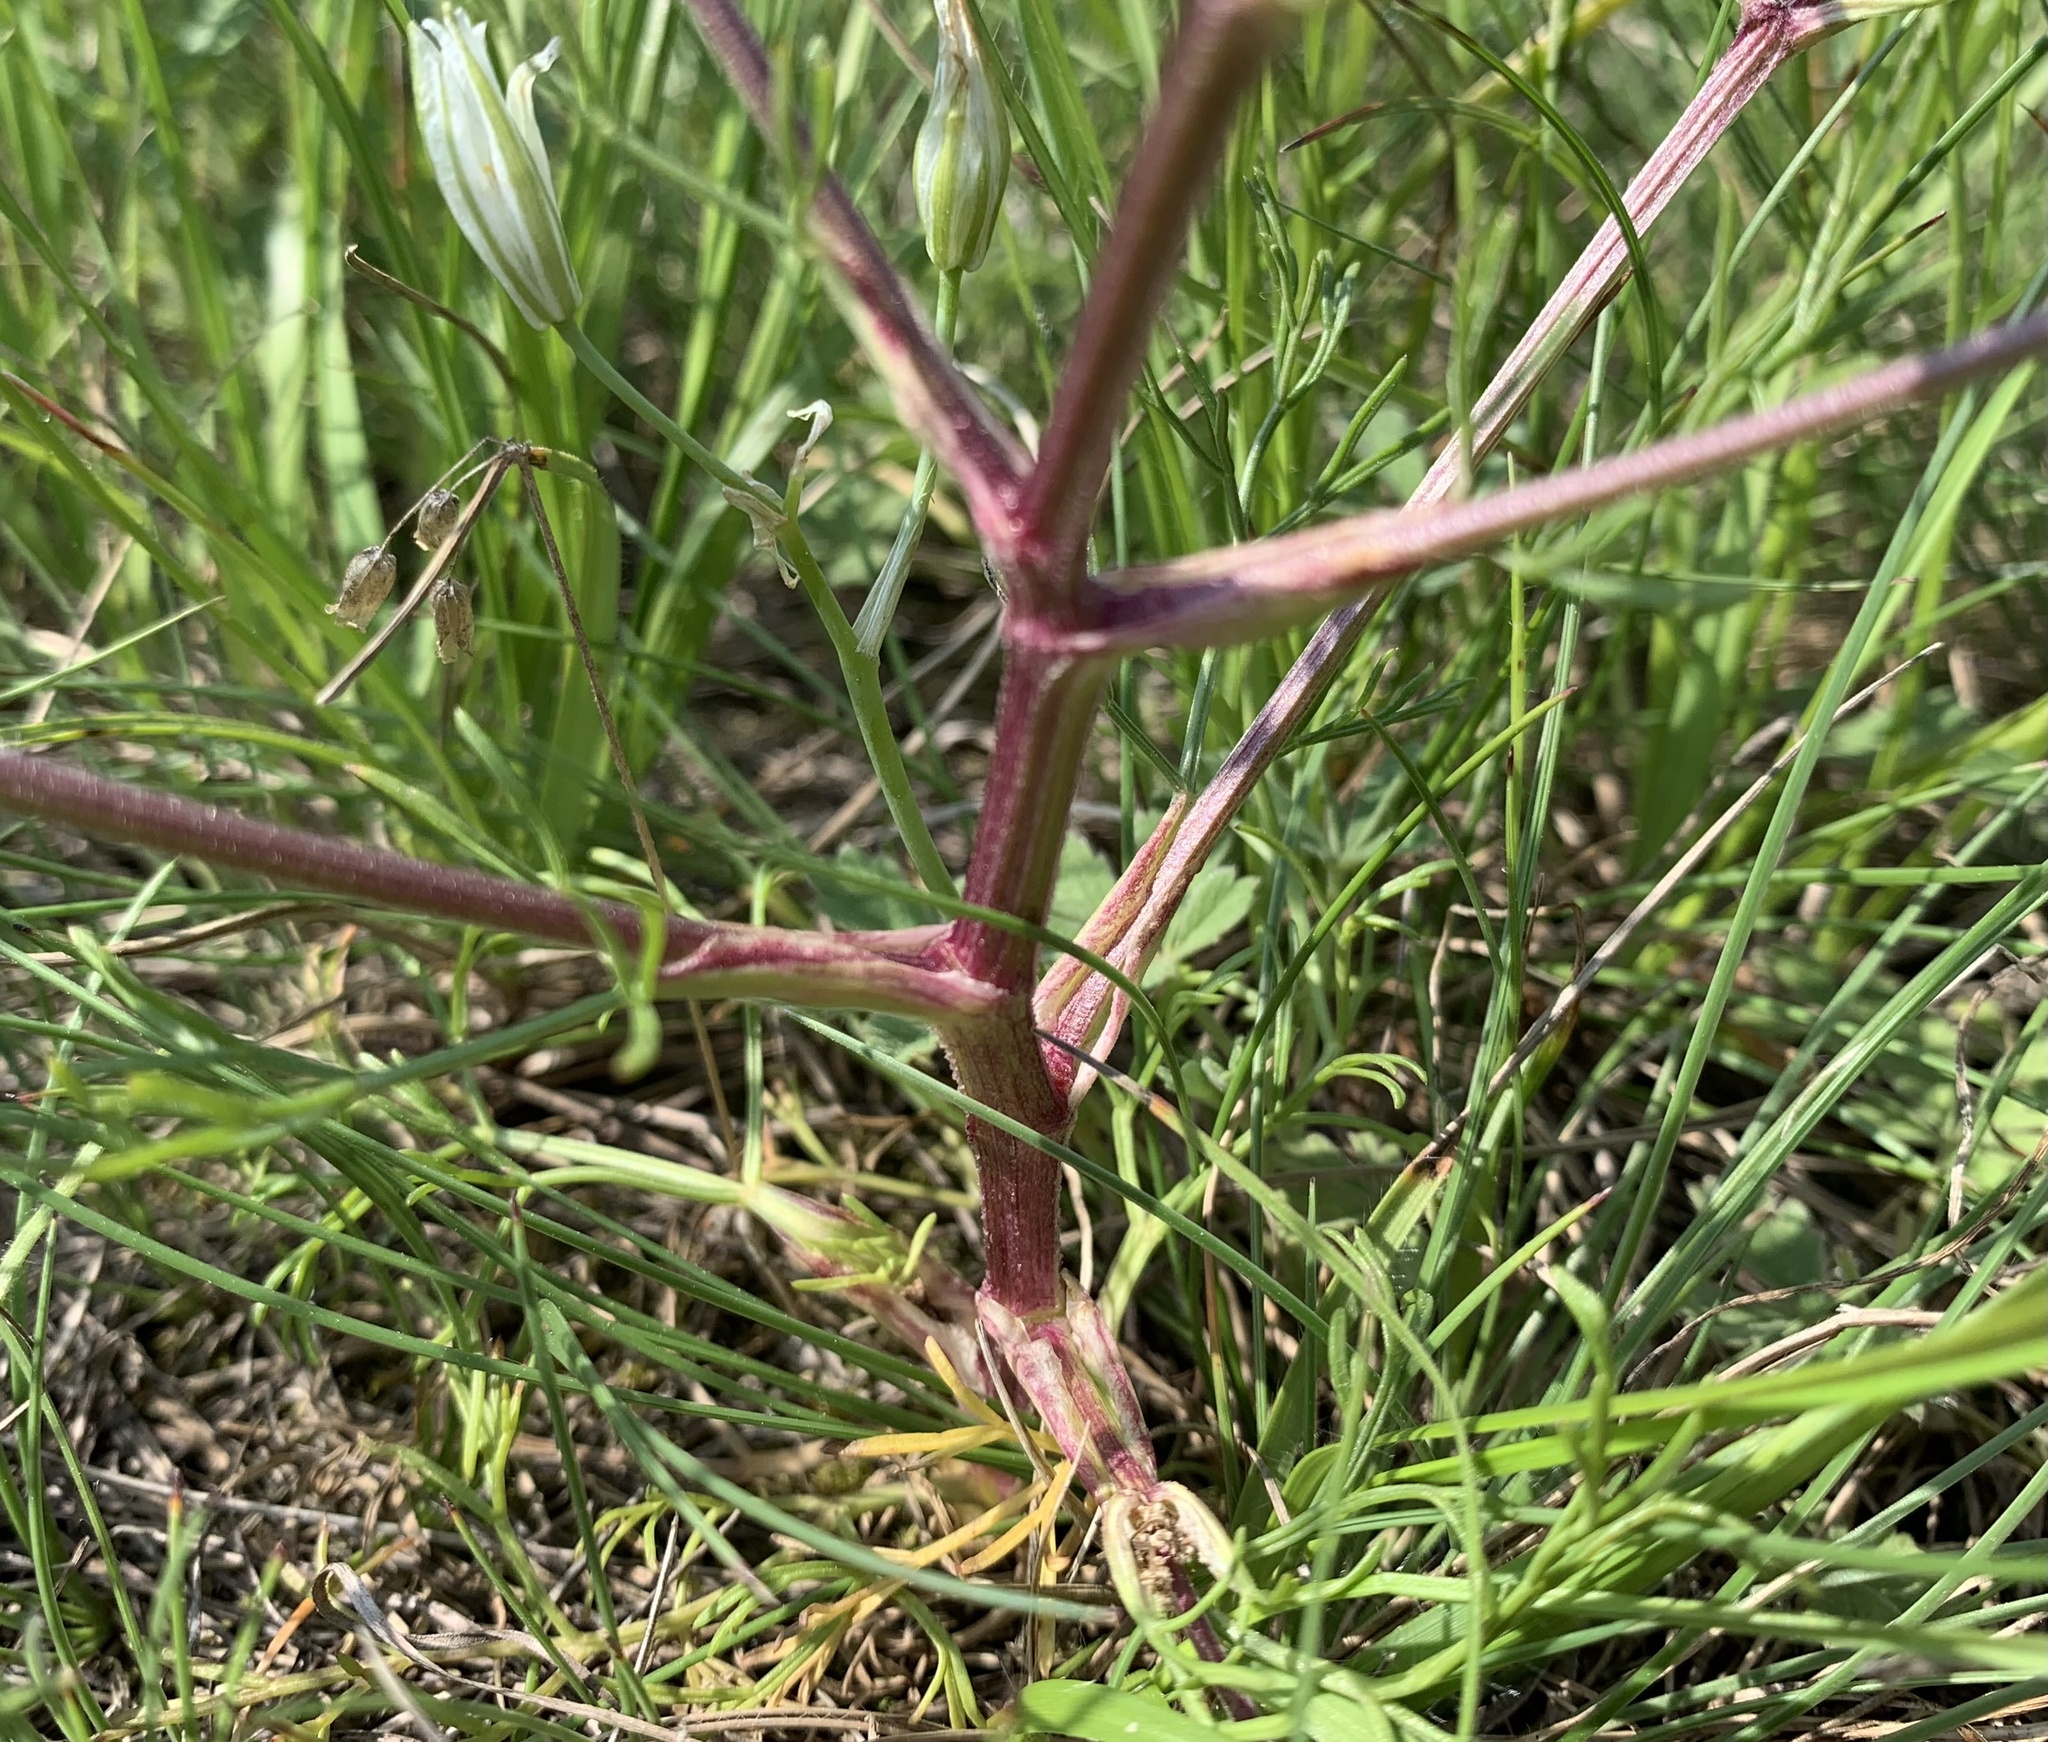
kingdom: Plantae
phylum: Tracheophyta
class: Magnoliopsida
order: Apiales
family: Apiaceae
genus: Trinia
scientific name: Trinia glauca
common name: Honewort
